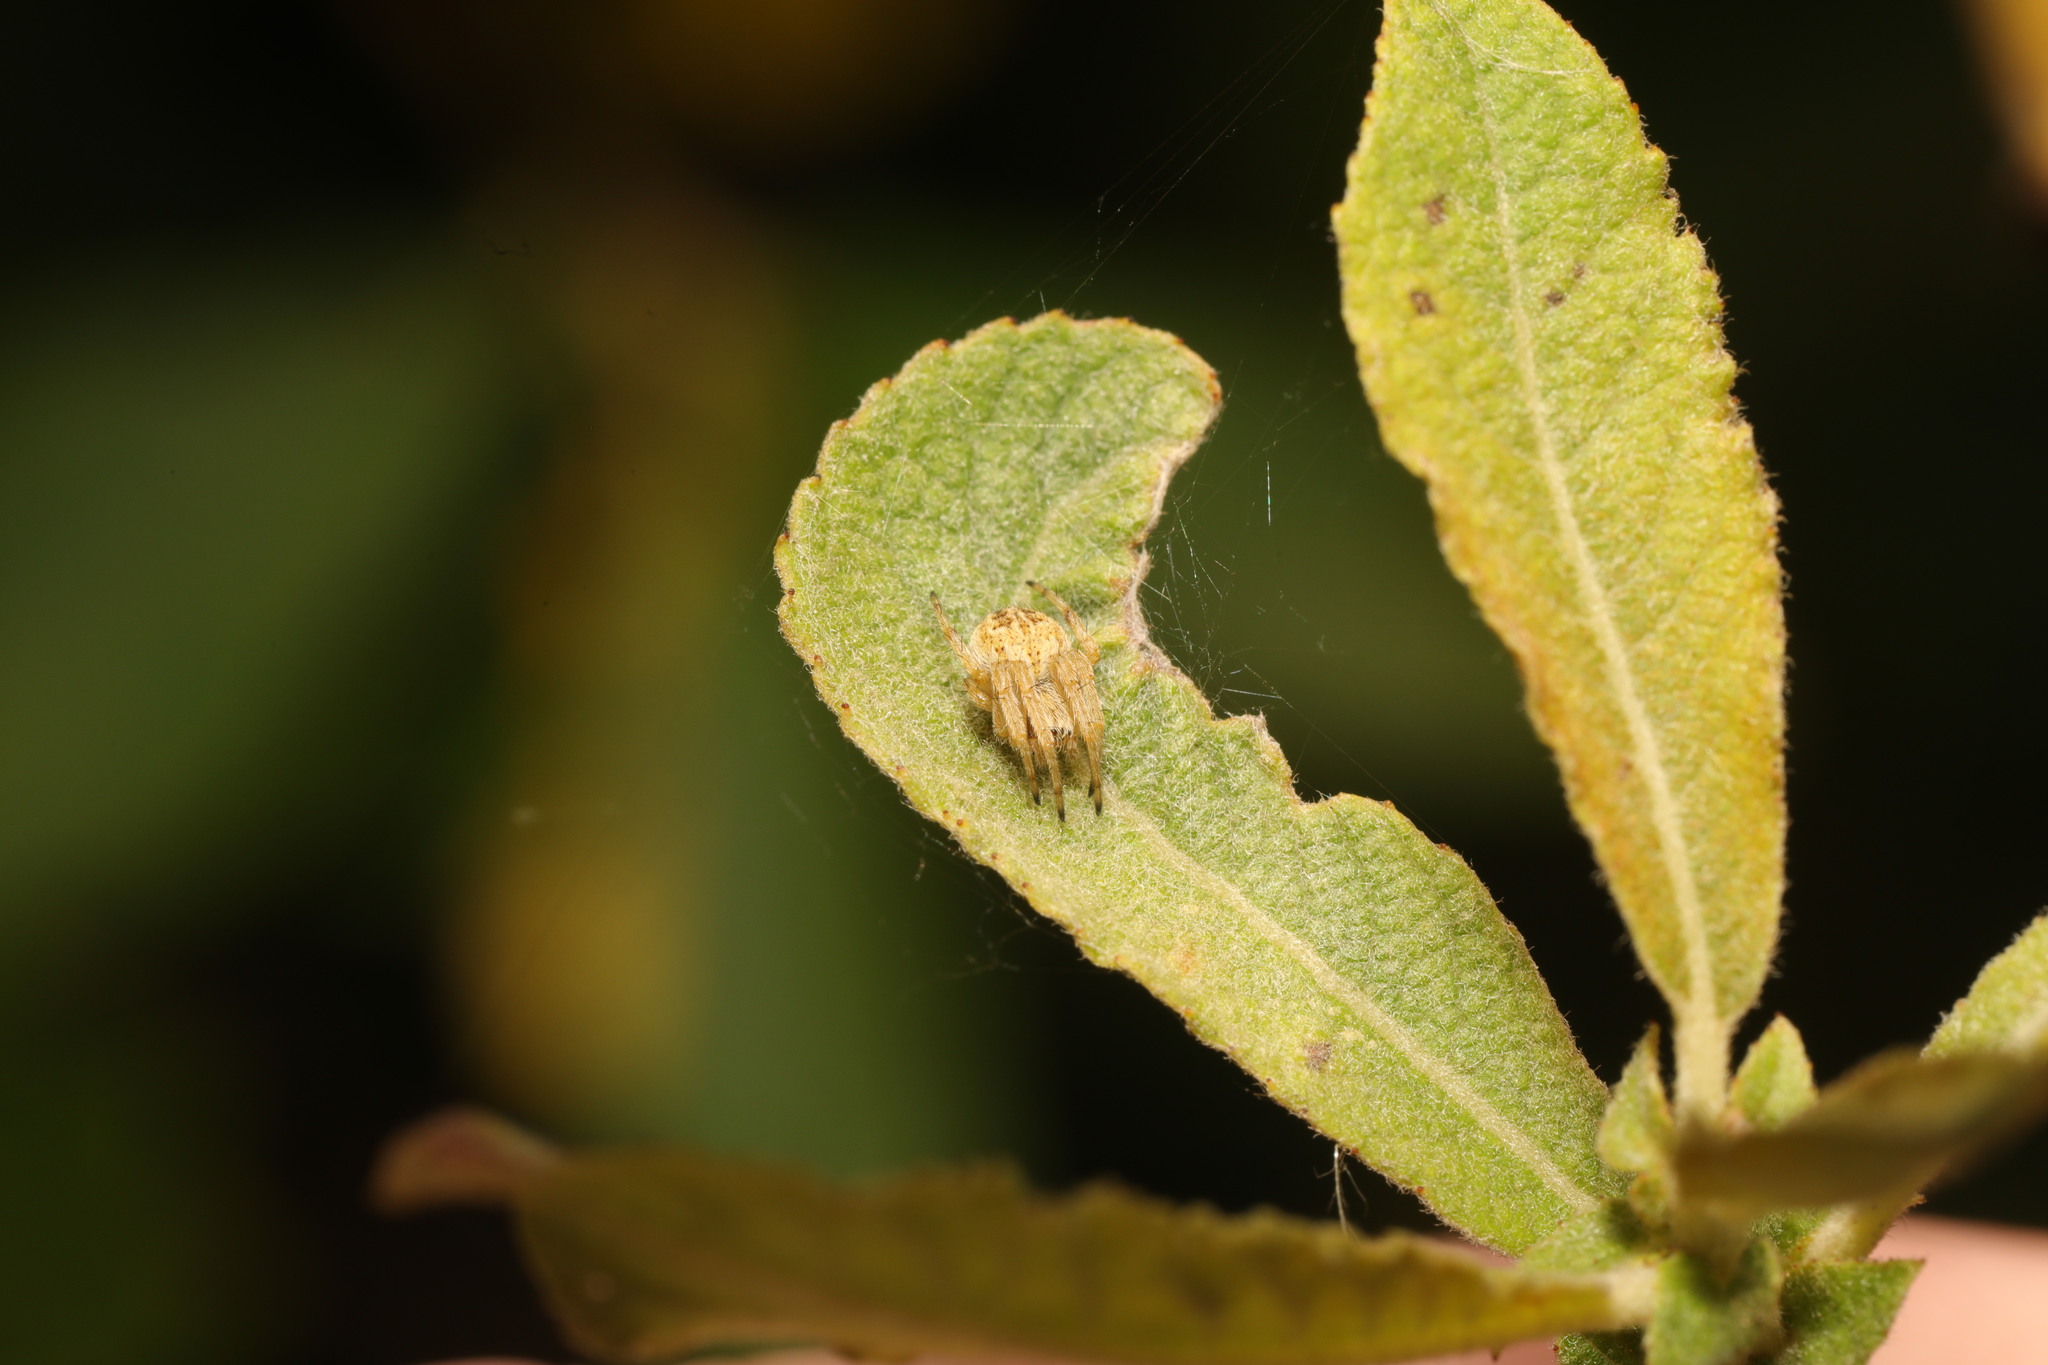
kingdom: Animalia
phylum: Arthropoda
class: Arachnida
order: Araneae
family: Araneidae
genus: Larinioides
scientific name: Larinioides cornutus
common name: Furrow orbweaver
